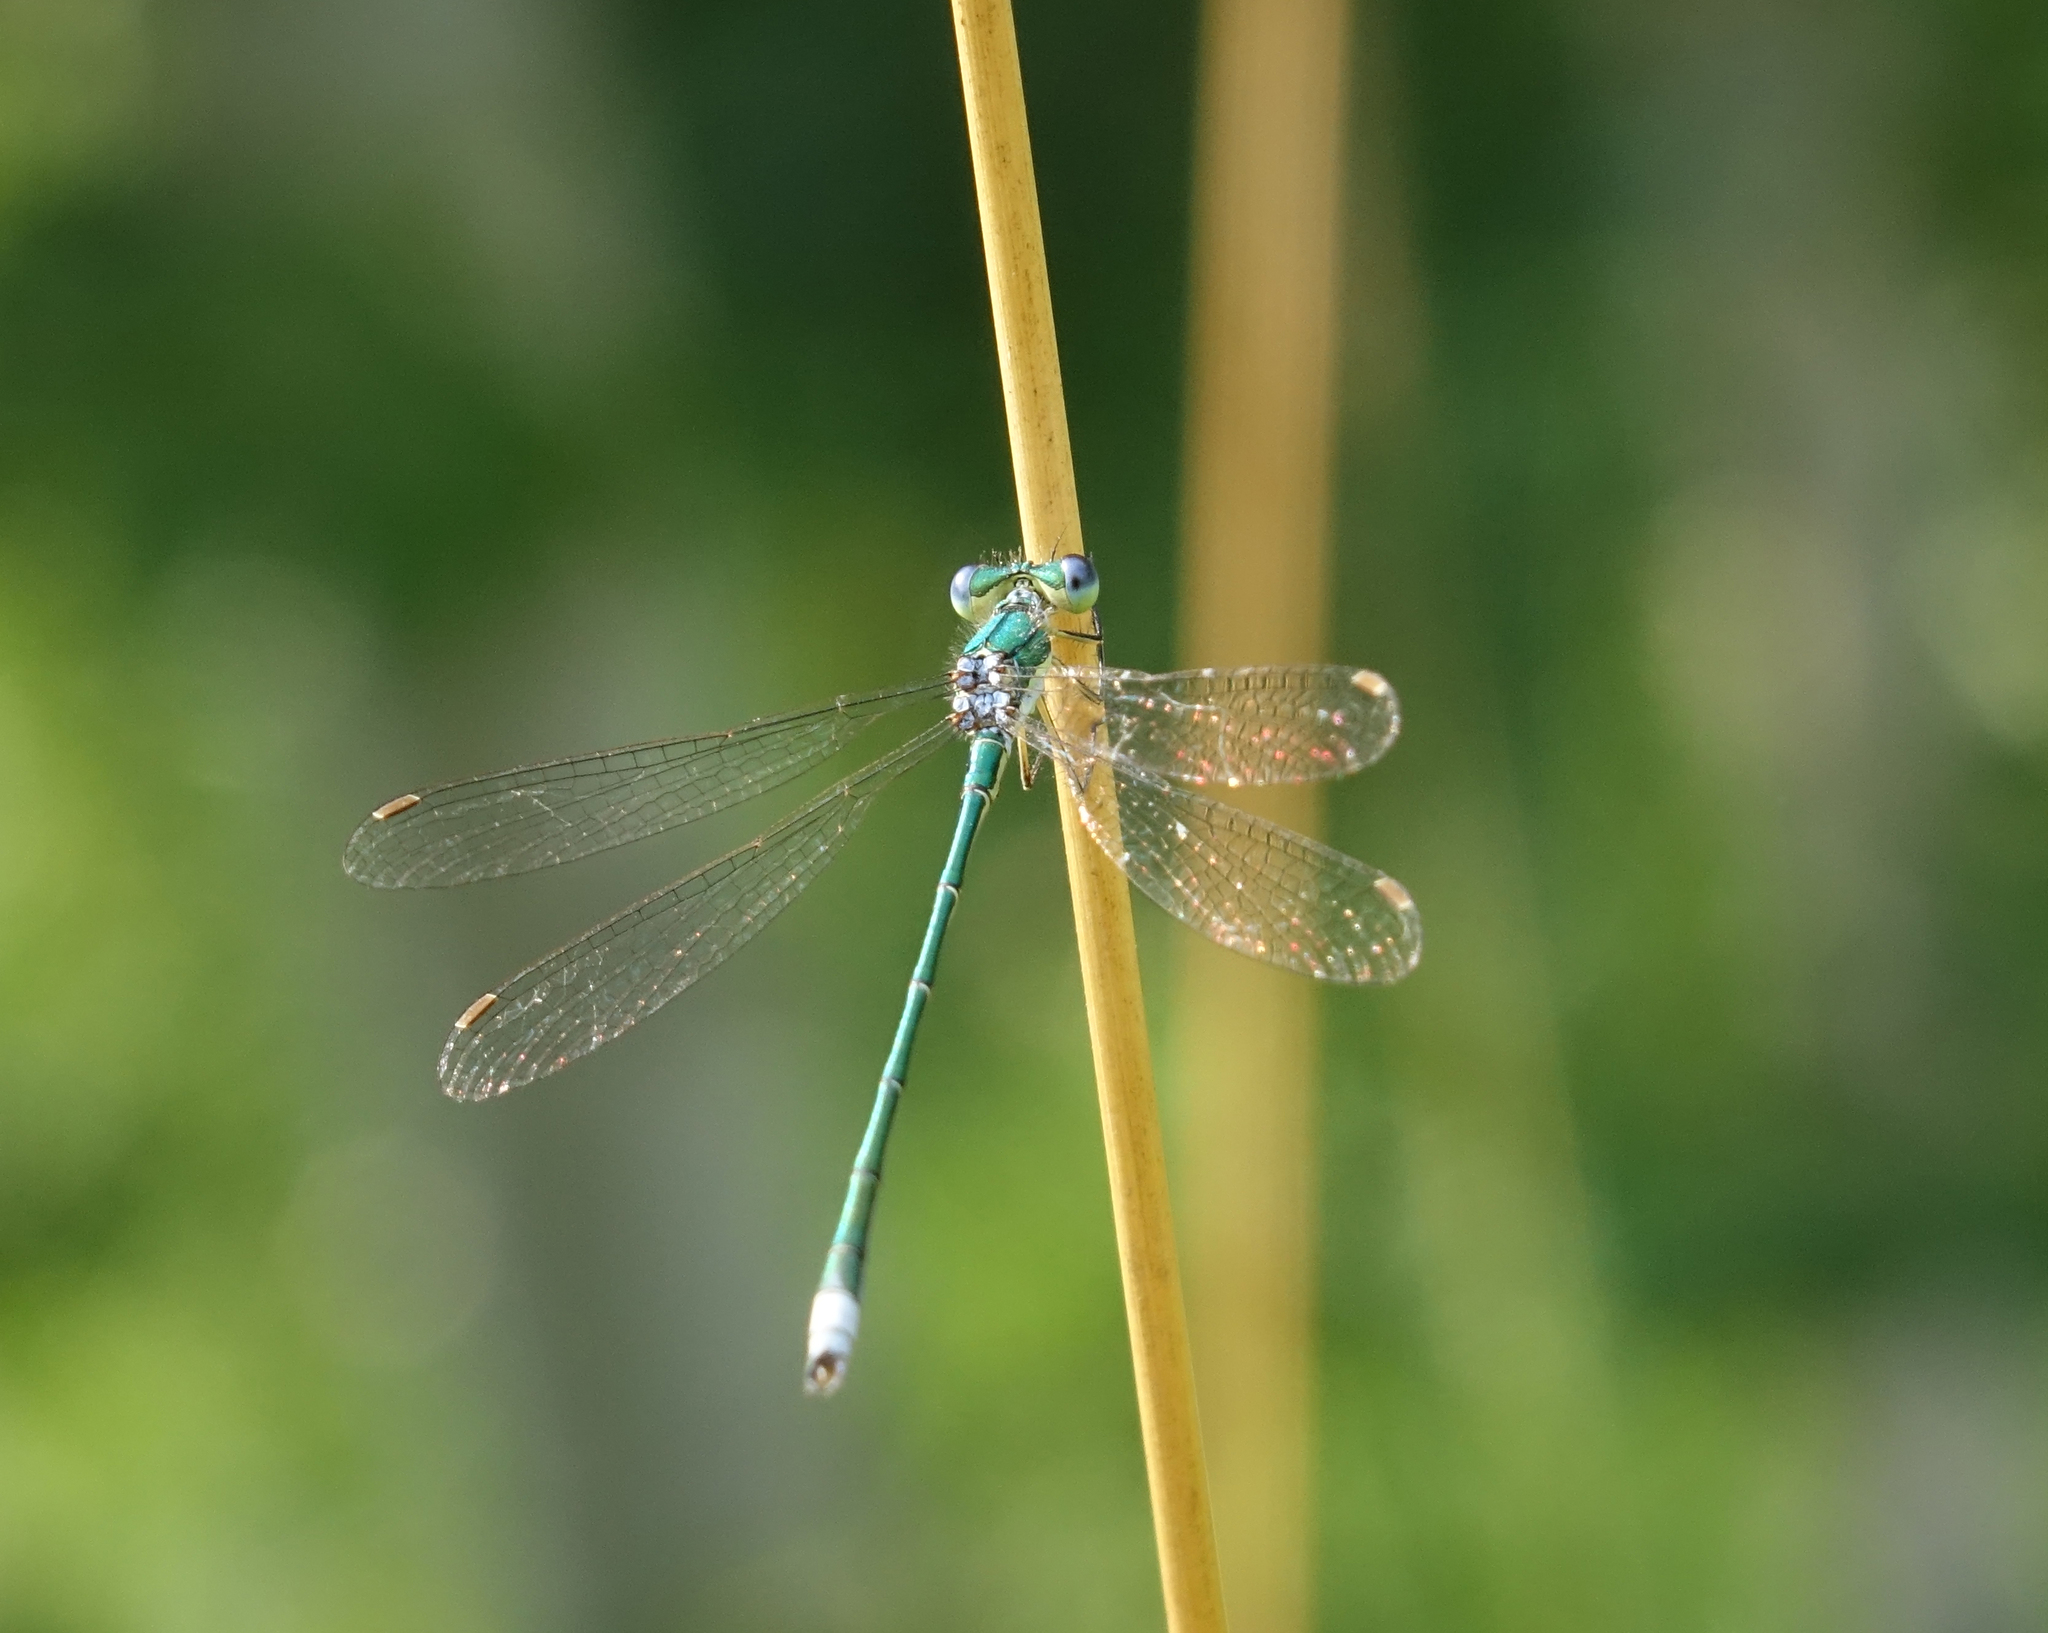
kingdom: Animalia
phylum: Arthropoda
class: Insecta
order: Odonata
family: Lestidae
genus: Lestes
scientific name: Lestes virens
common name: Small emerald spreadwing
